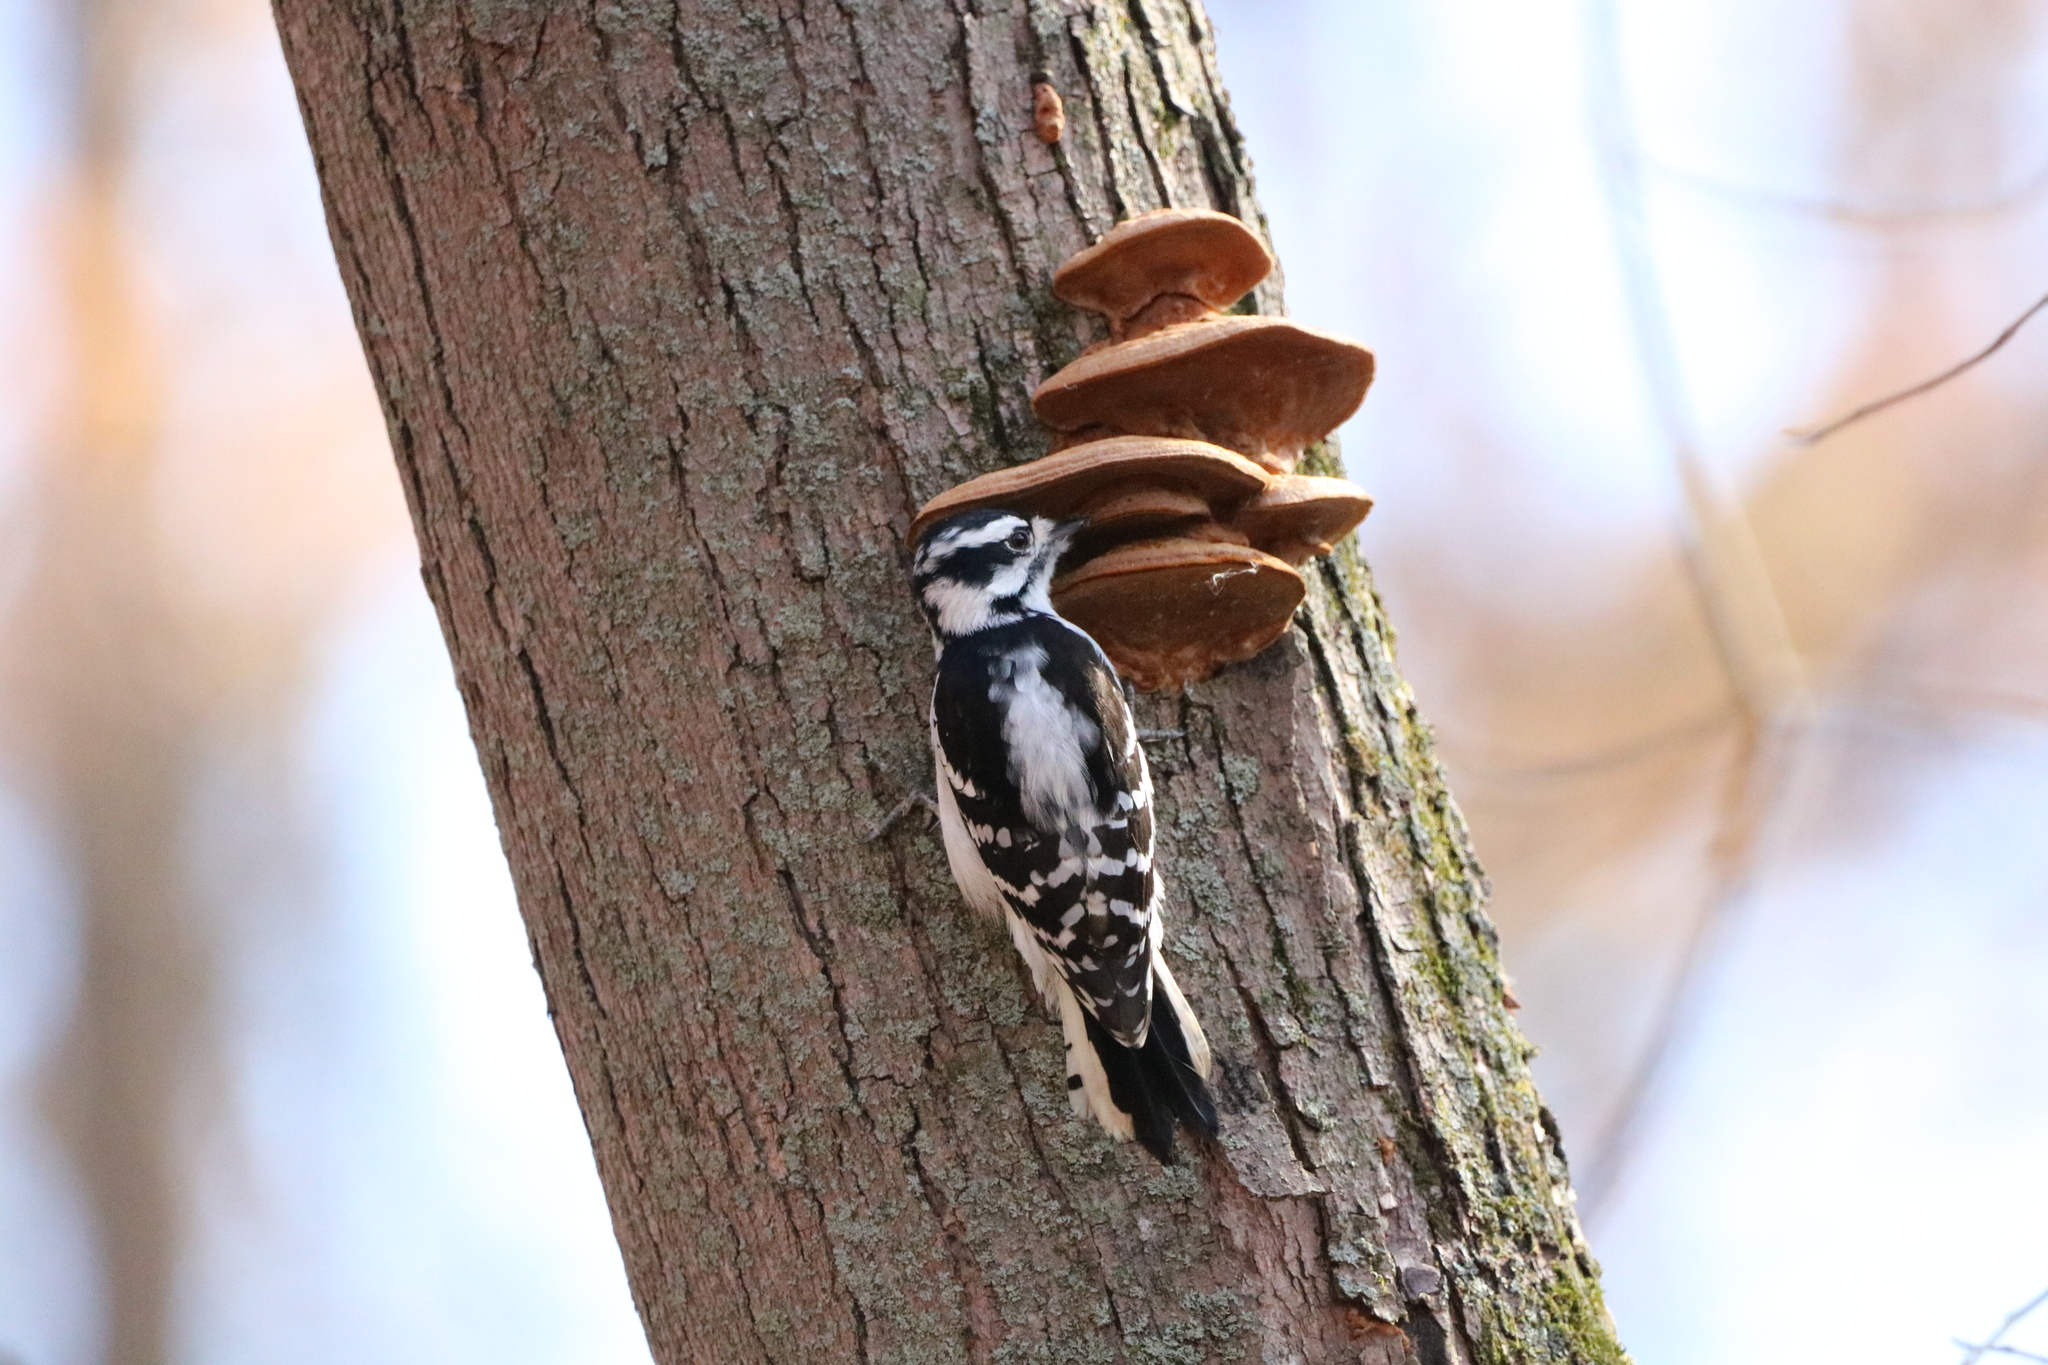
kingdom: Animalia
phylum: Chordata
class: Aves
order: Piciformes
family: Picidae
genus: Dryobates
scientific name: Dryobates pubescens
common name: Downy woodpecker
